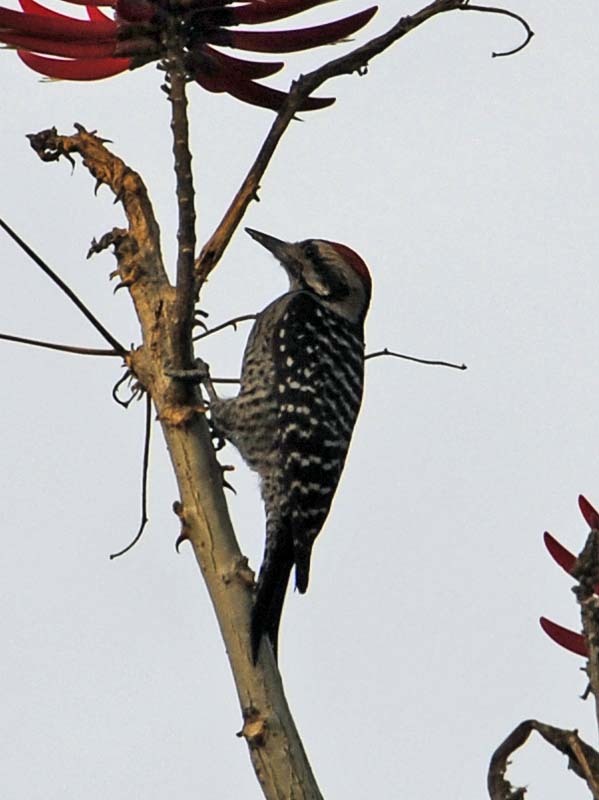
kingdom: Animalia
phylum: Chordata
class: Aves
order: Piciformes
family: Picidae
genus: Dryobates
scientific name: Dryobates scalaris
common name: Ladder-backed woodpecker
